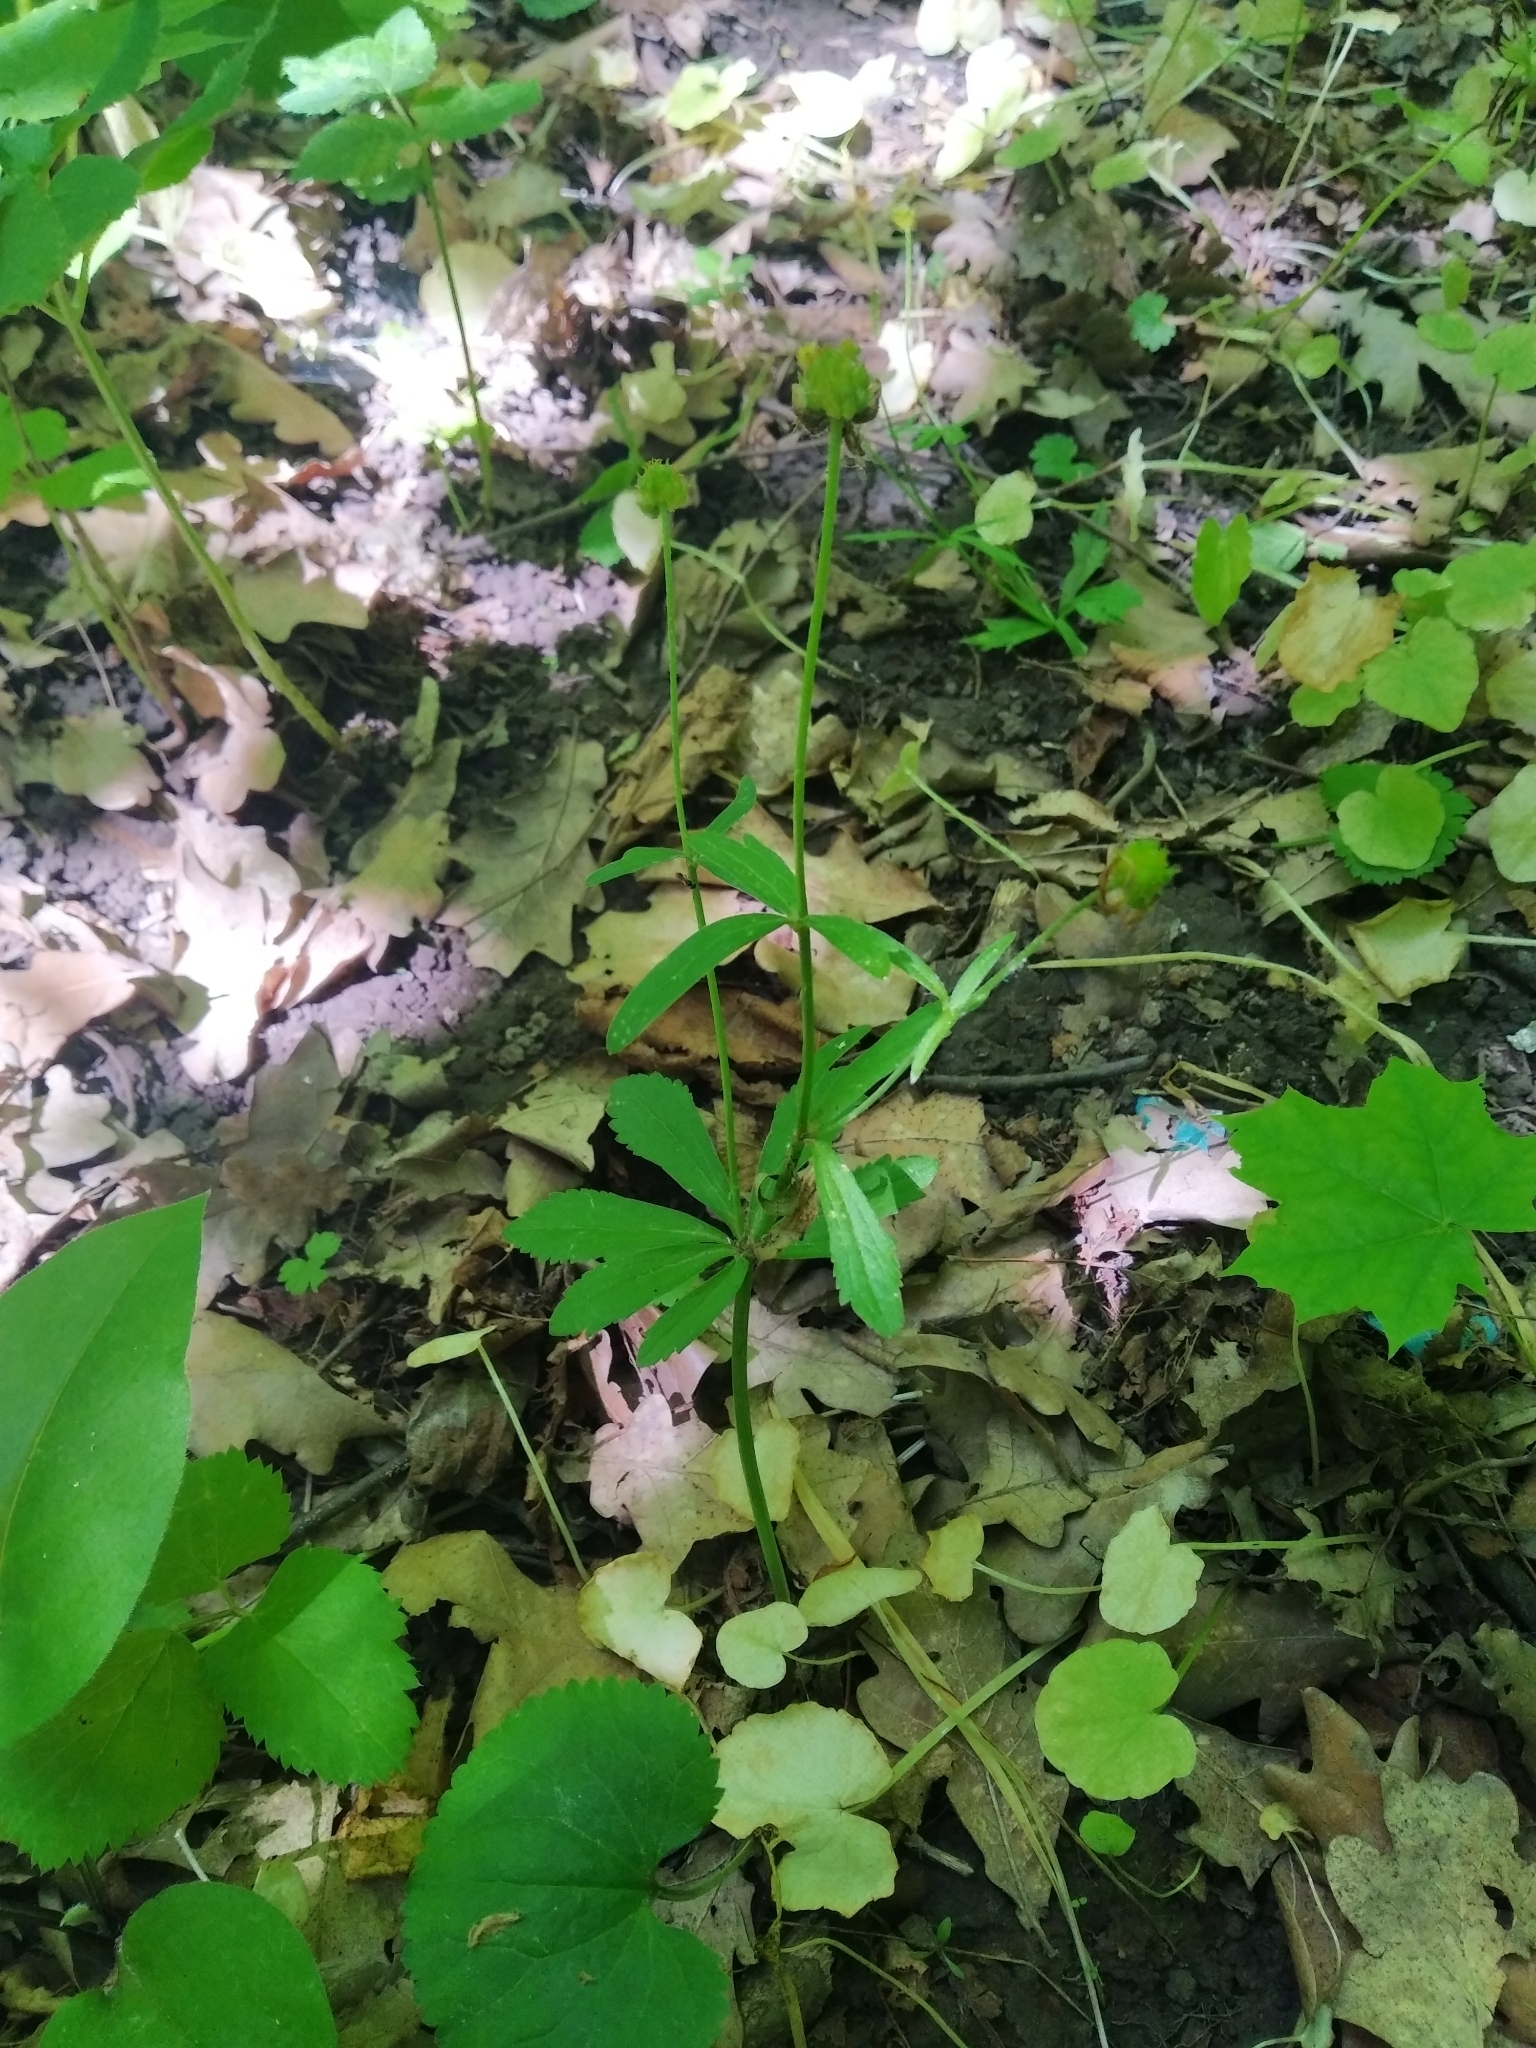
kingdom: Plantae
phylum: Tracheophyta
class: Magnoliopsida
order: Ranunculales
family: Ranunculaceae
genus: Ranunculus
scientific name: Ranunculus cassubicus
